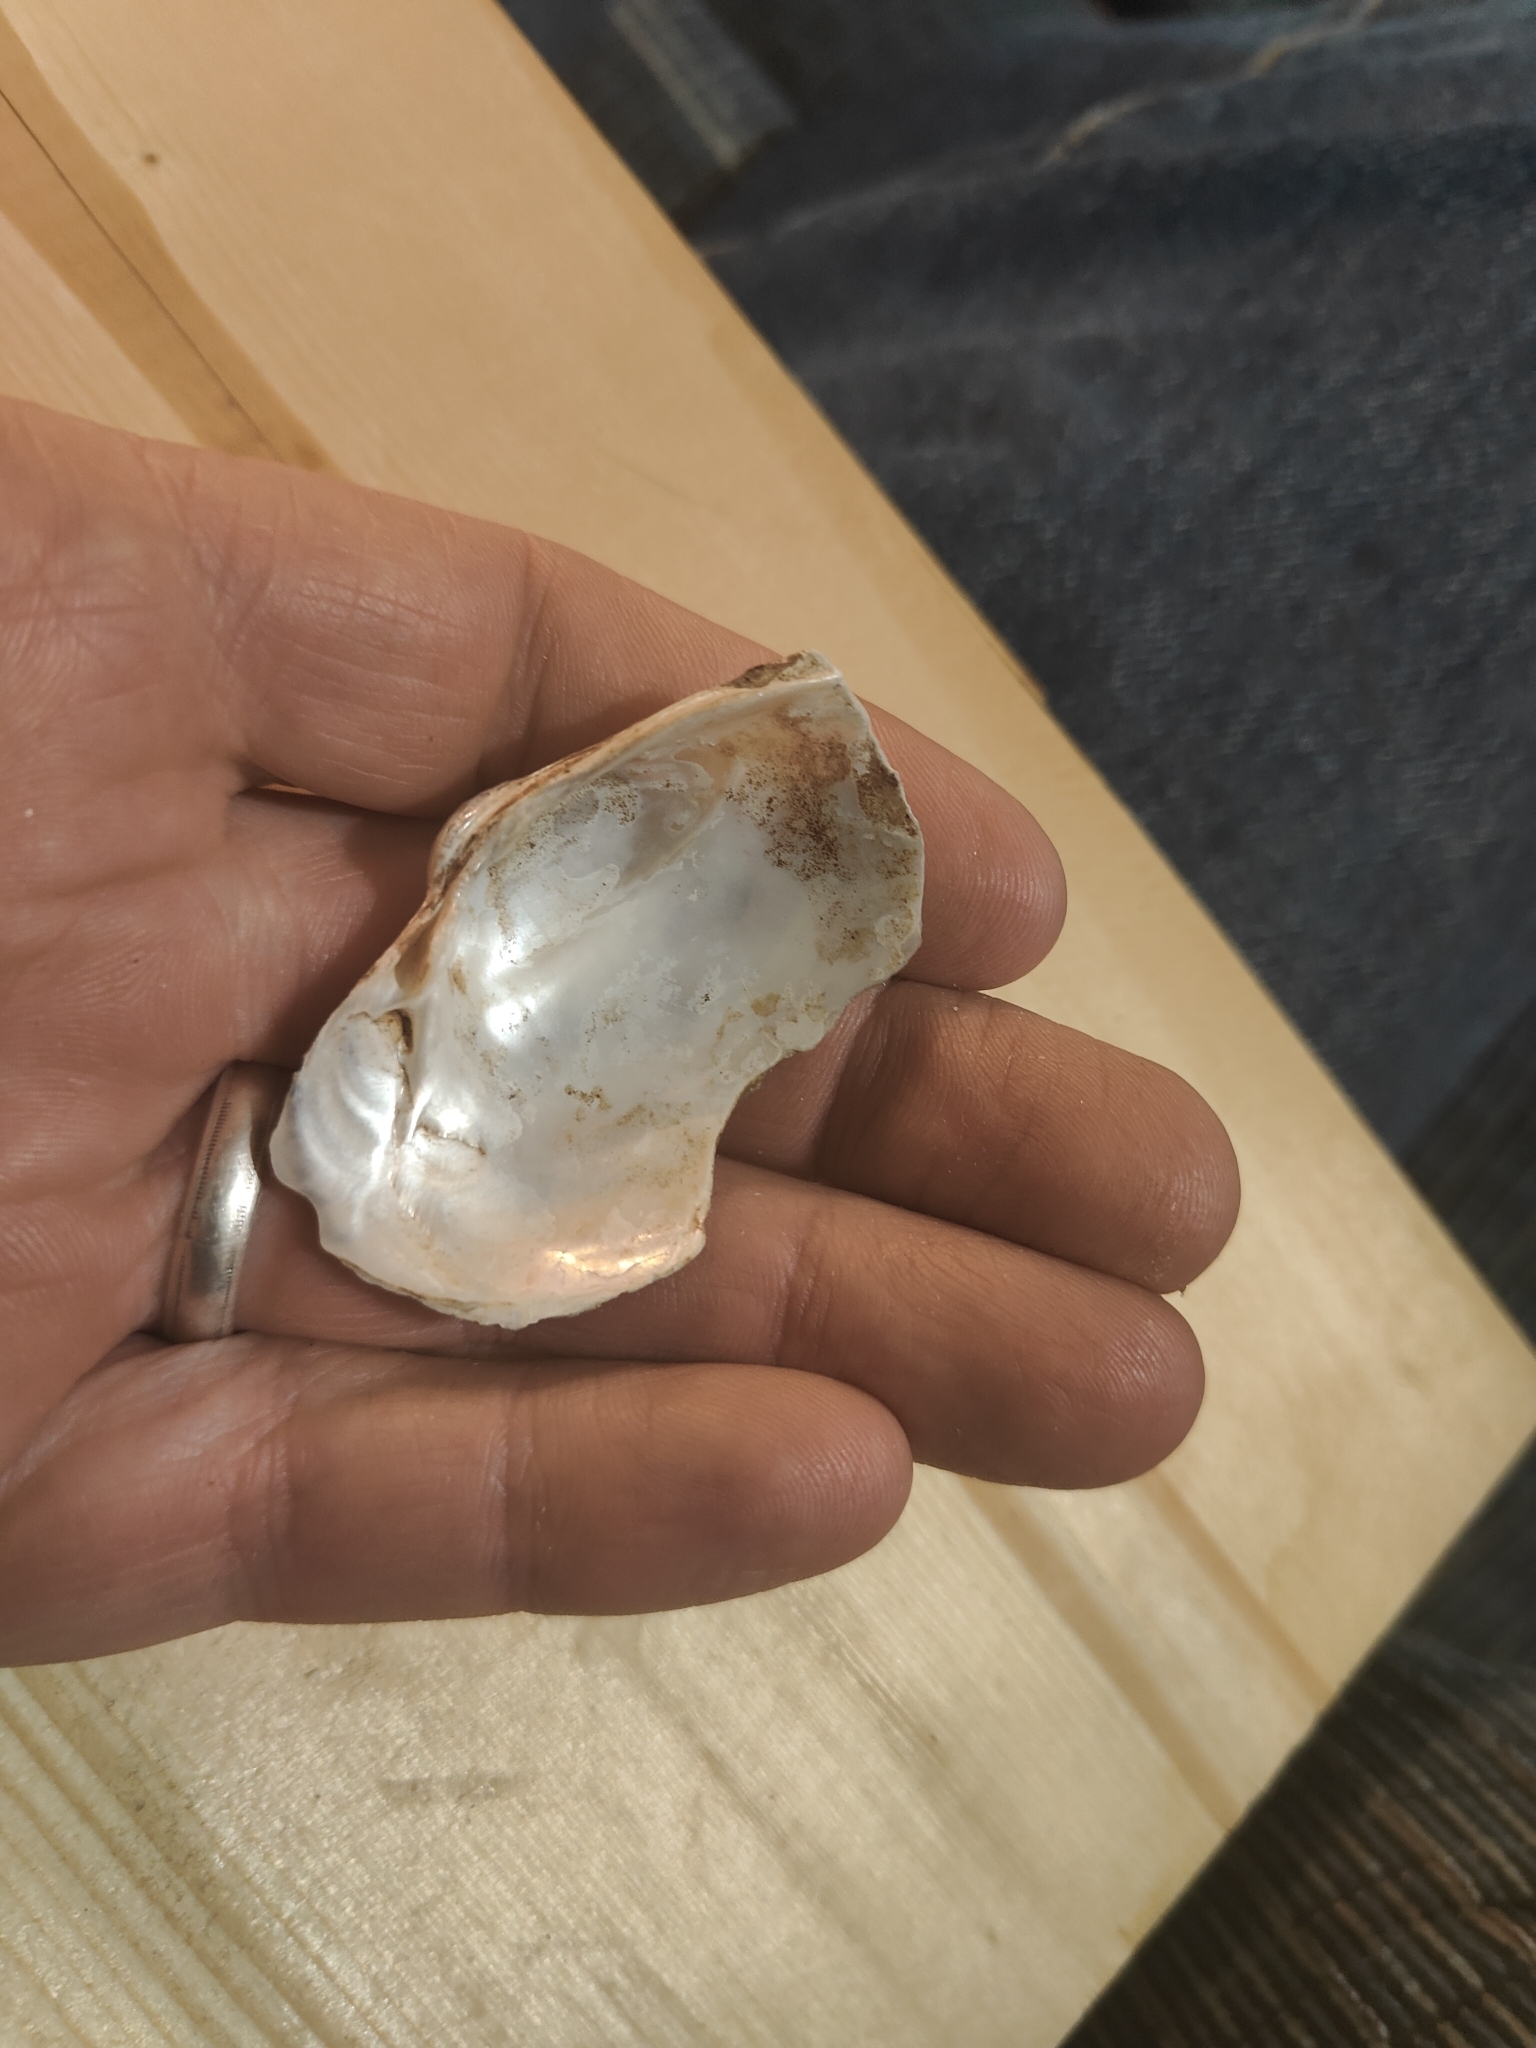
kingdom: Animalia
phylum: Mollusca
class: Bivalvia
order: Unionida
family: Unionidae
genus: Lampsilis
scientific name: Lampsilis cardium
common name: Plain pocketbook
